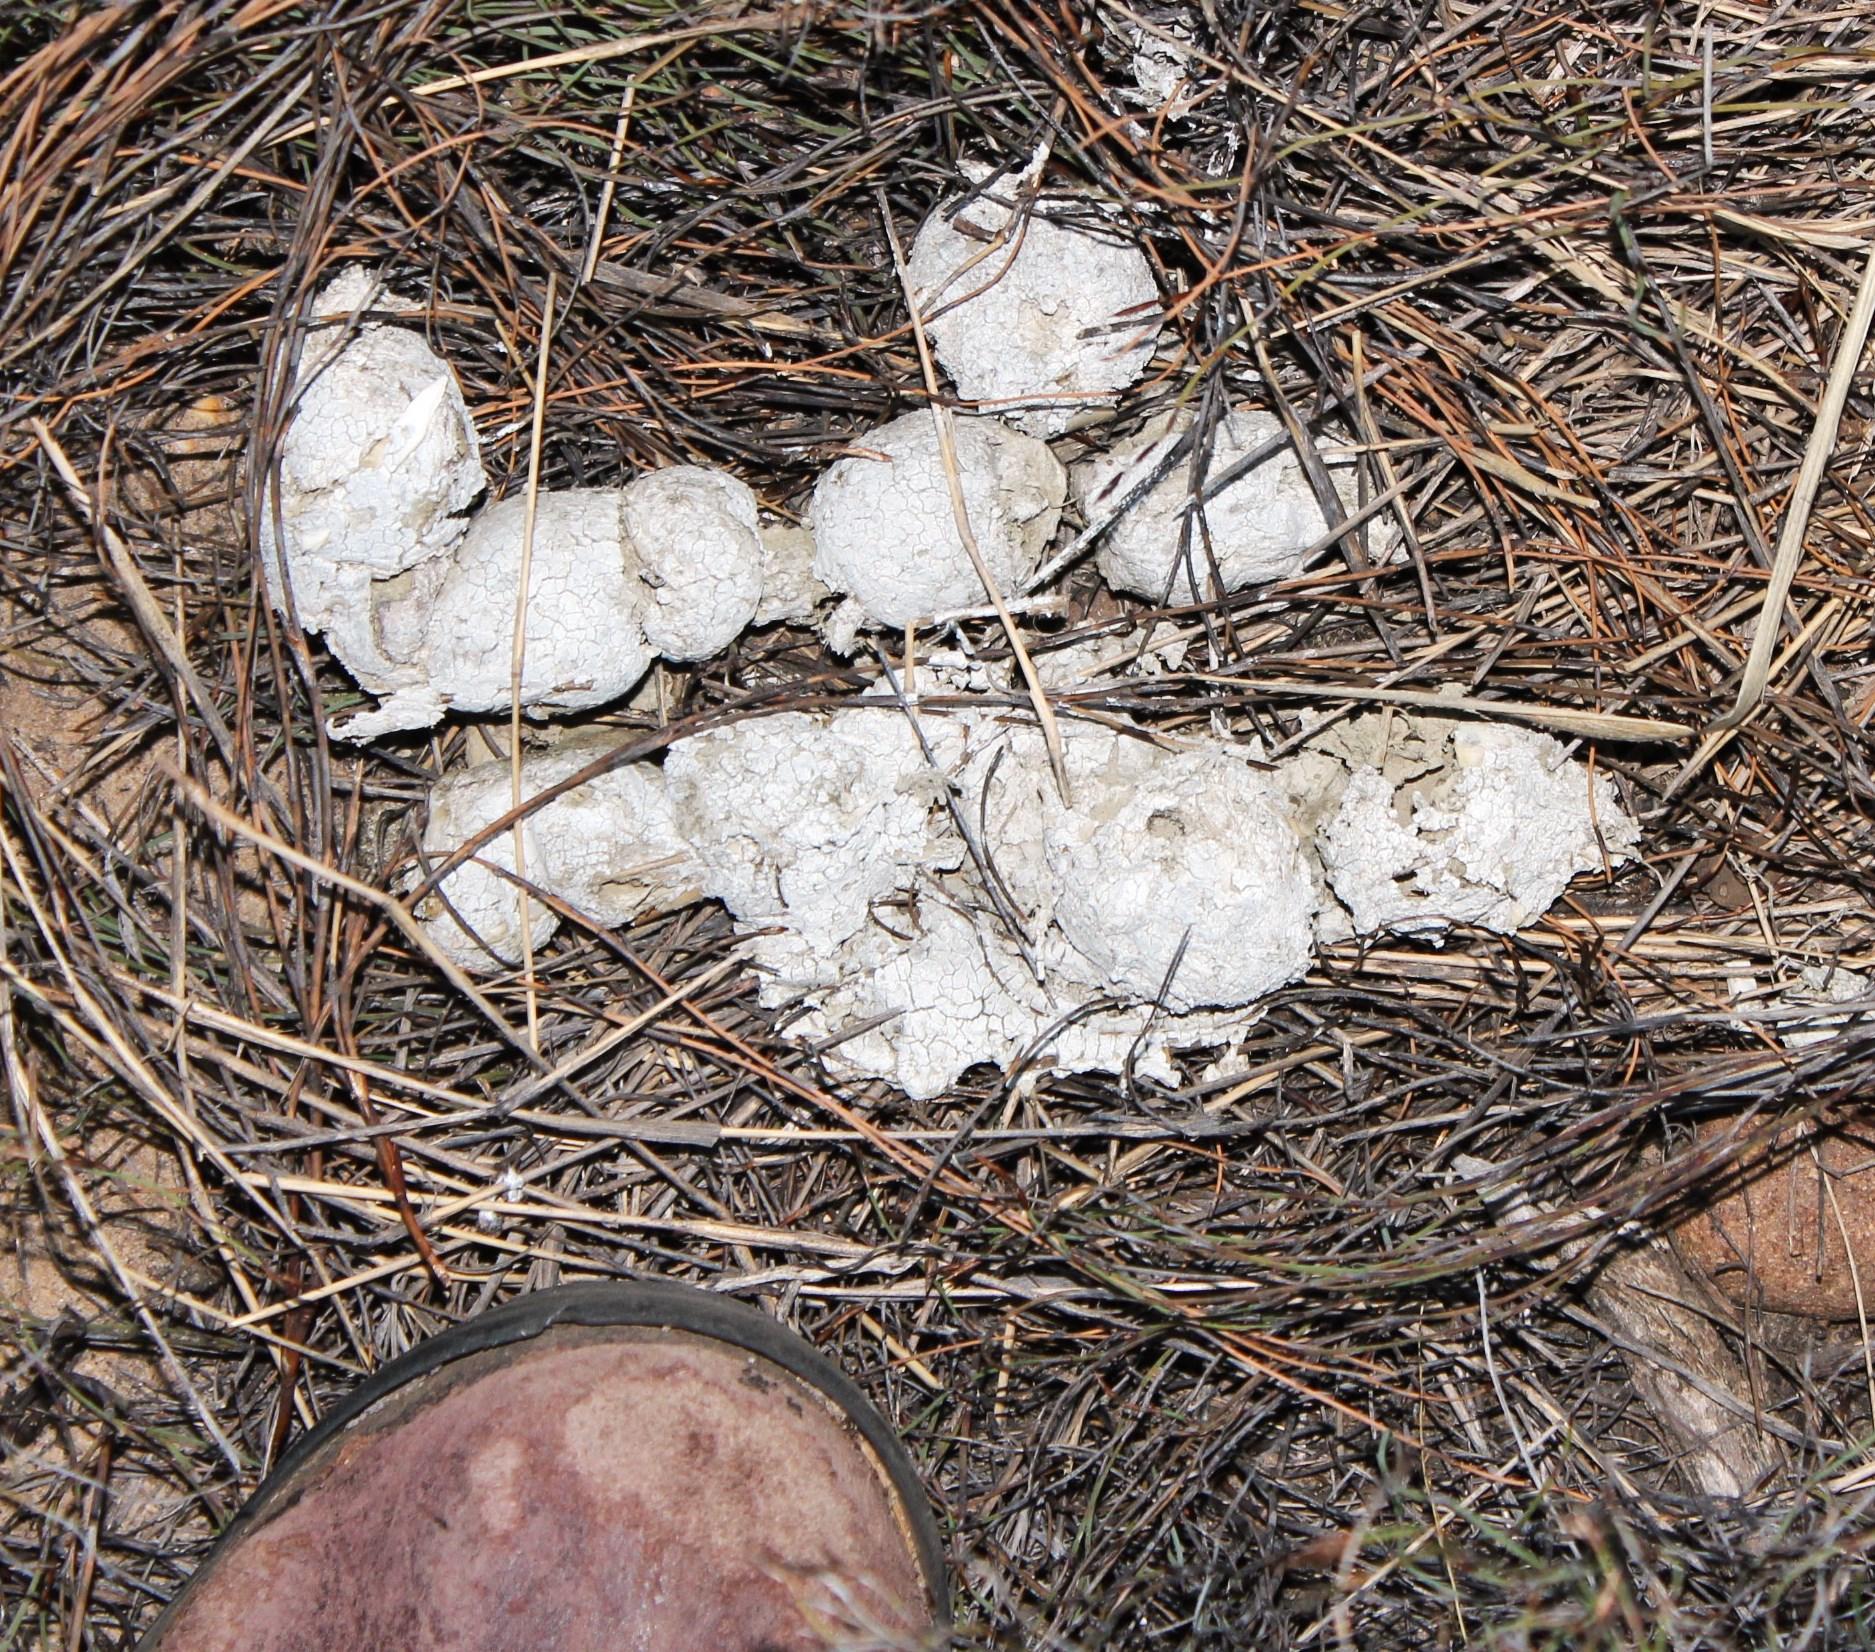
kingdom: Animalia
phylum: Chordata
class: Mammalia
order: Carnivora
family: Felidae
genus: Panthera
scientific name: Panthera pardus
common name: Leopard
